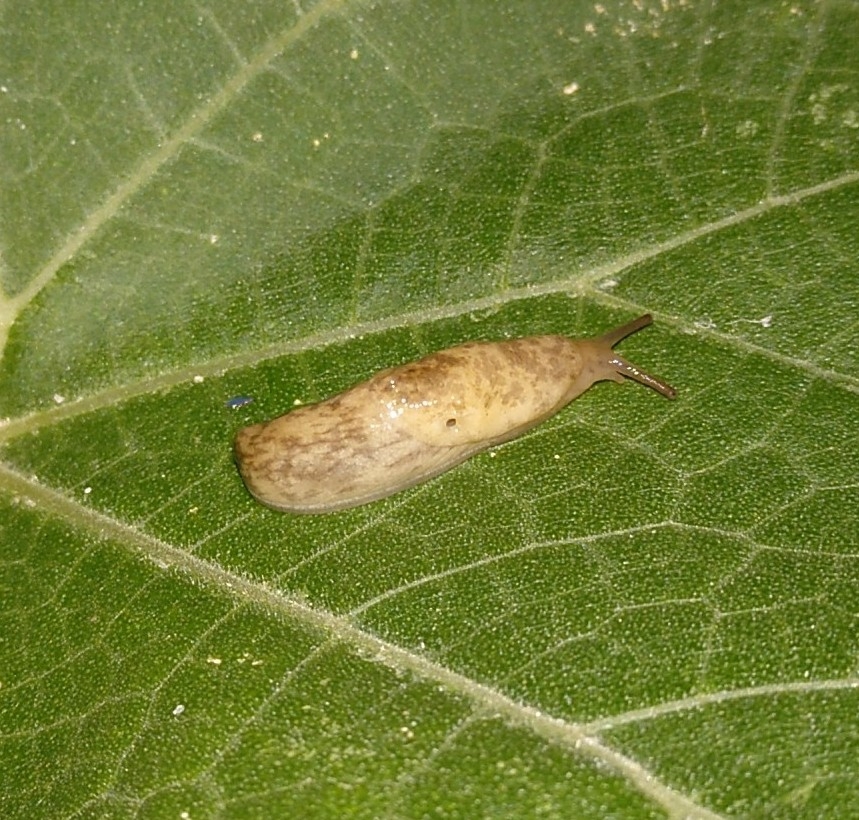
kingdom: Animalia
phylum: Mollusca
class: Gastropoda
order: Stylommatophora
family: Agriolimacidae
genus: Deroceras
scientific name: Deroceras reticulatum
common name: Gray field slug
